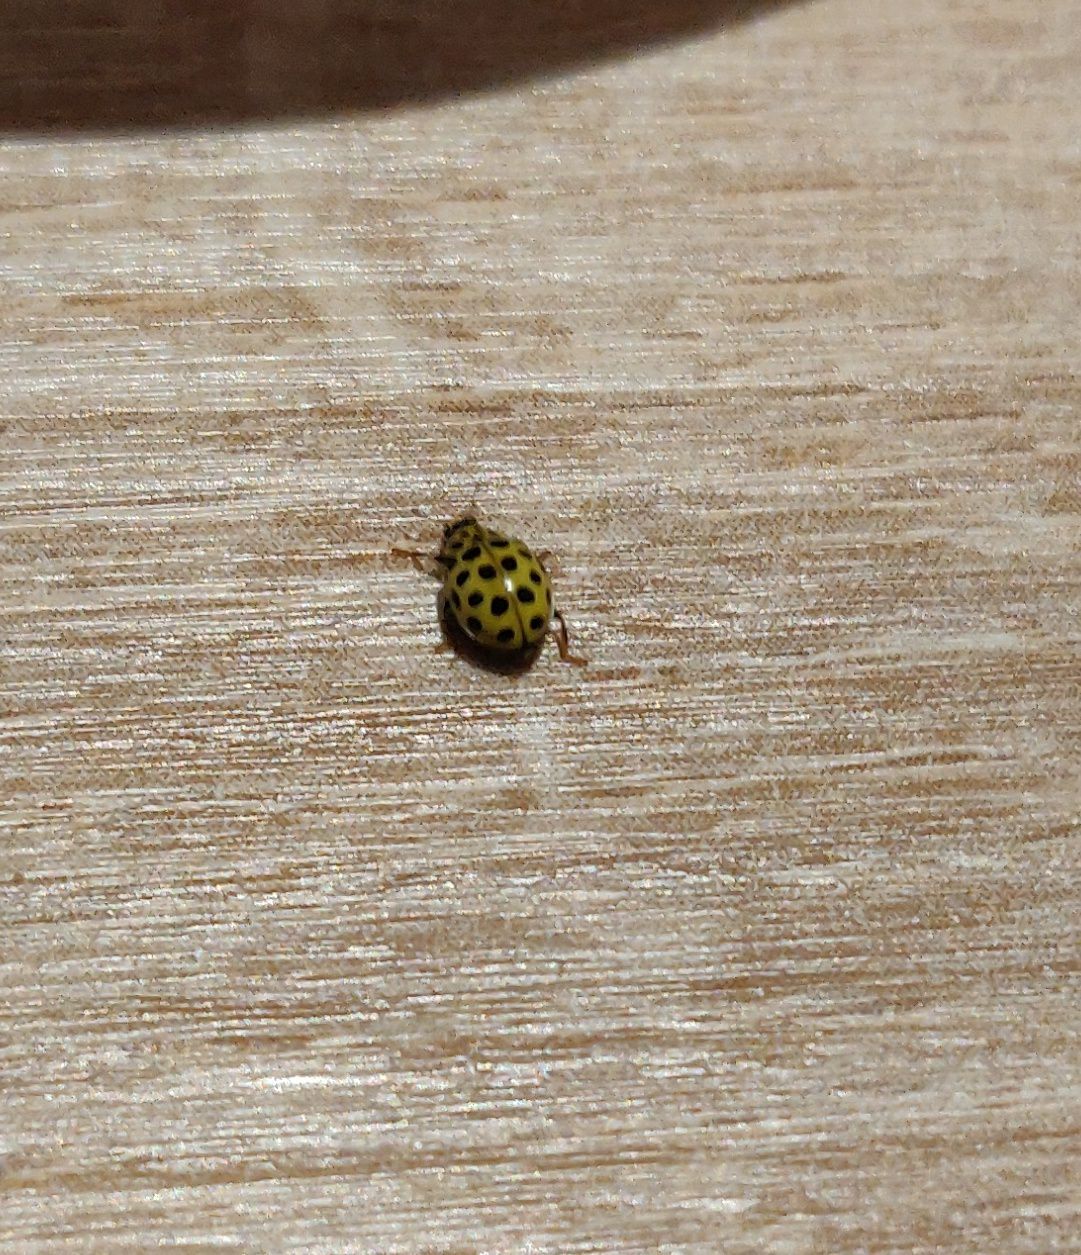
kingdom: Animalia
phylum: Arthropoda
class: Insecta
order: Coleoptera
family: Coccinellidae
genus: Psyllobora
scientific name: Psyllobora vigintiduopunctata
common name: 22-spot ladybird
